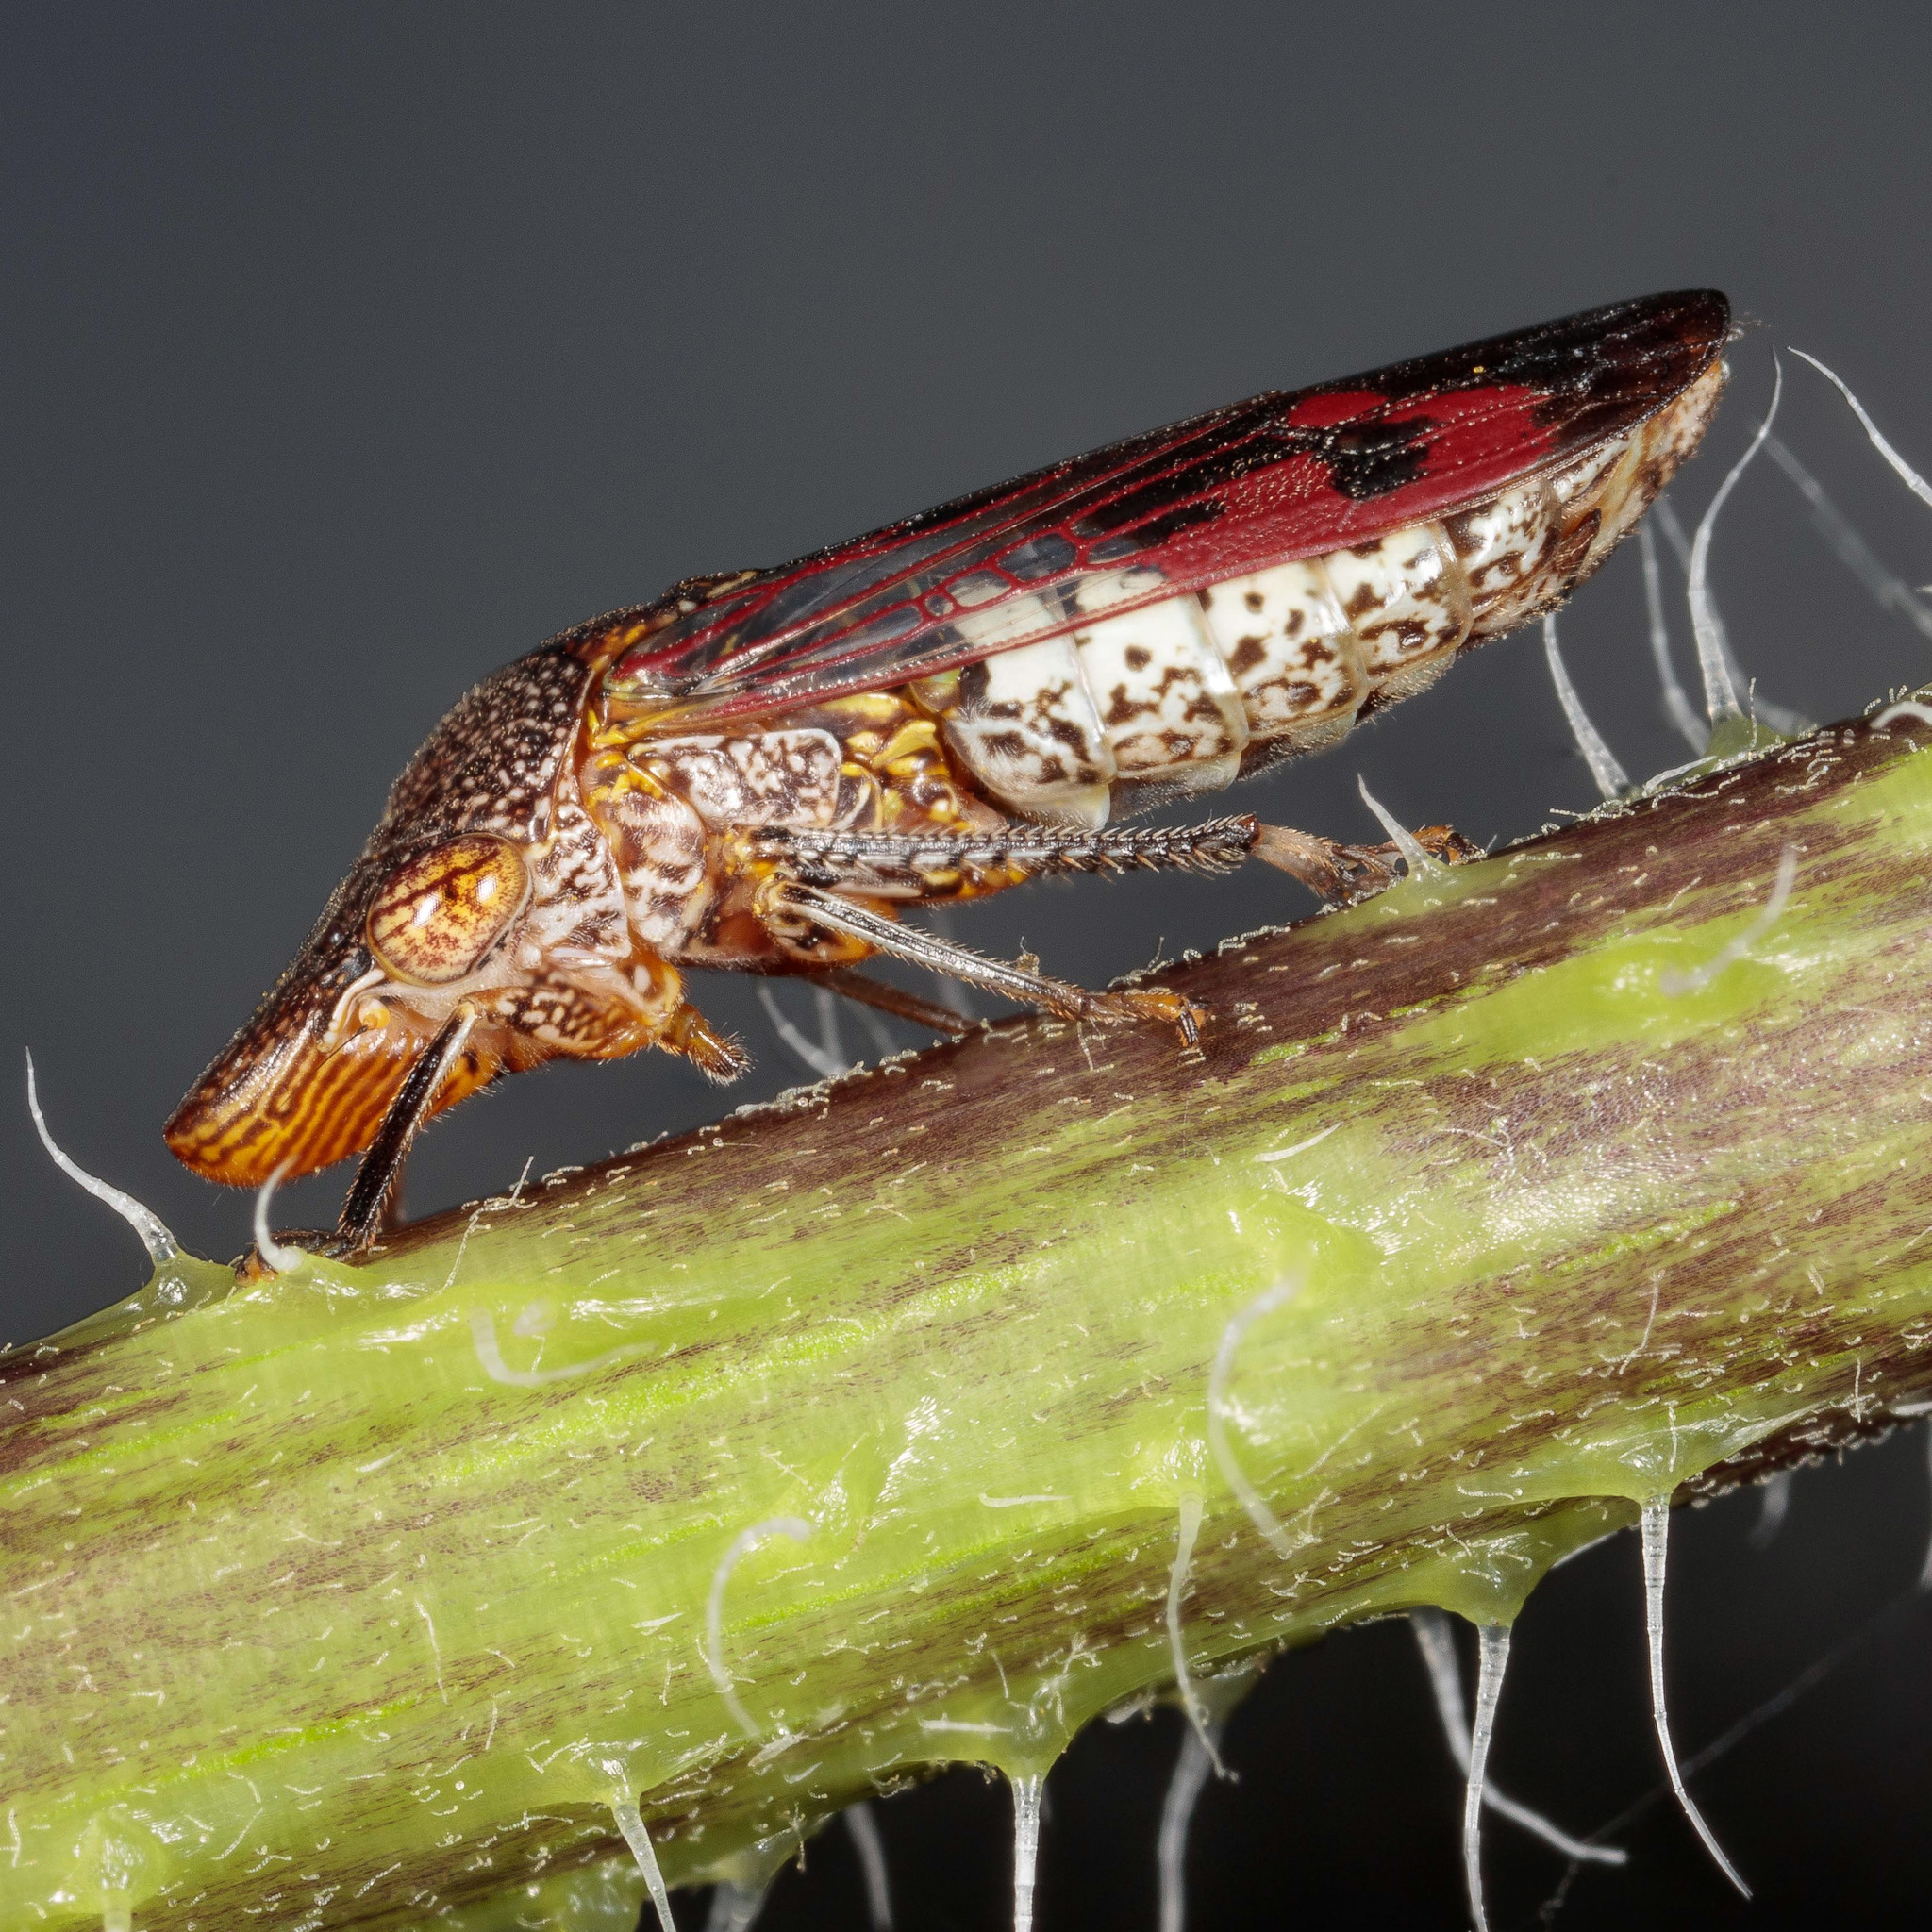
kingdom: Animalia
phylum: Arthropoda
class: Insecta
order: Hemiptera
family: Cicadellidae
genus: Homalodisca
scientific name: Homalodisca vitripennis
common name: Glassy-winged sharpshooter
